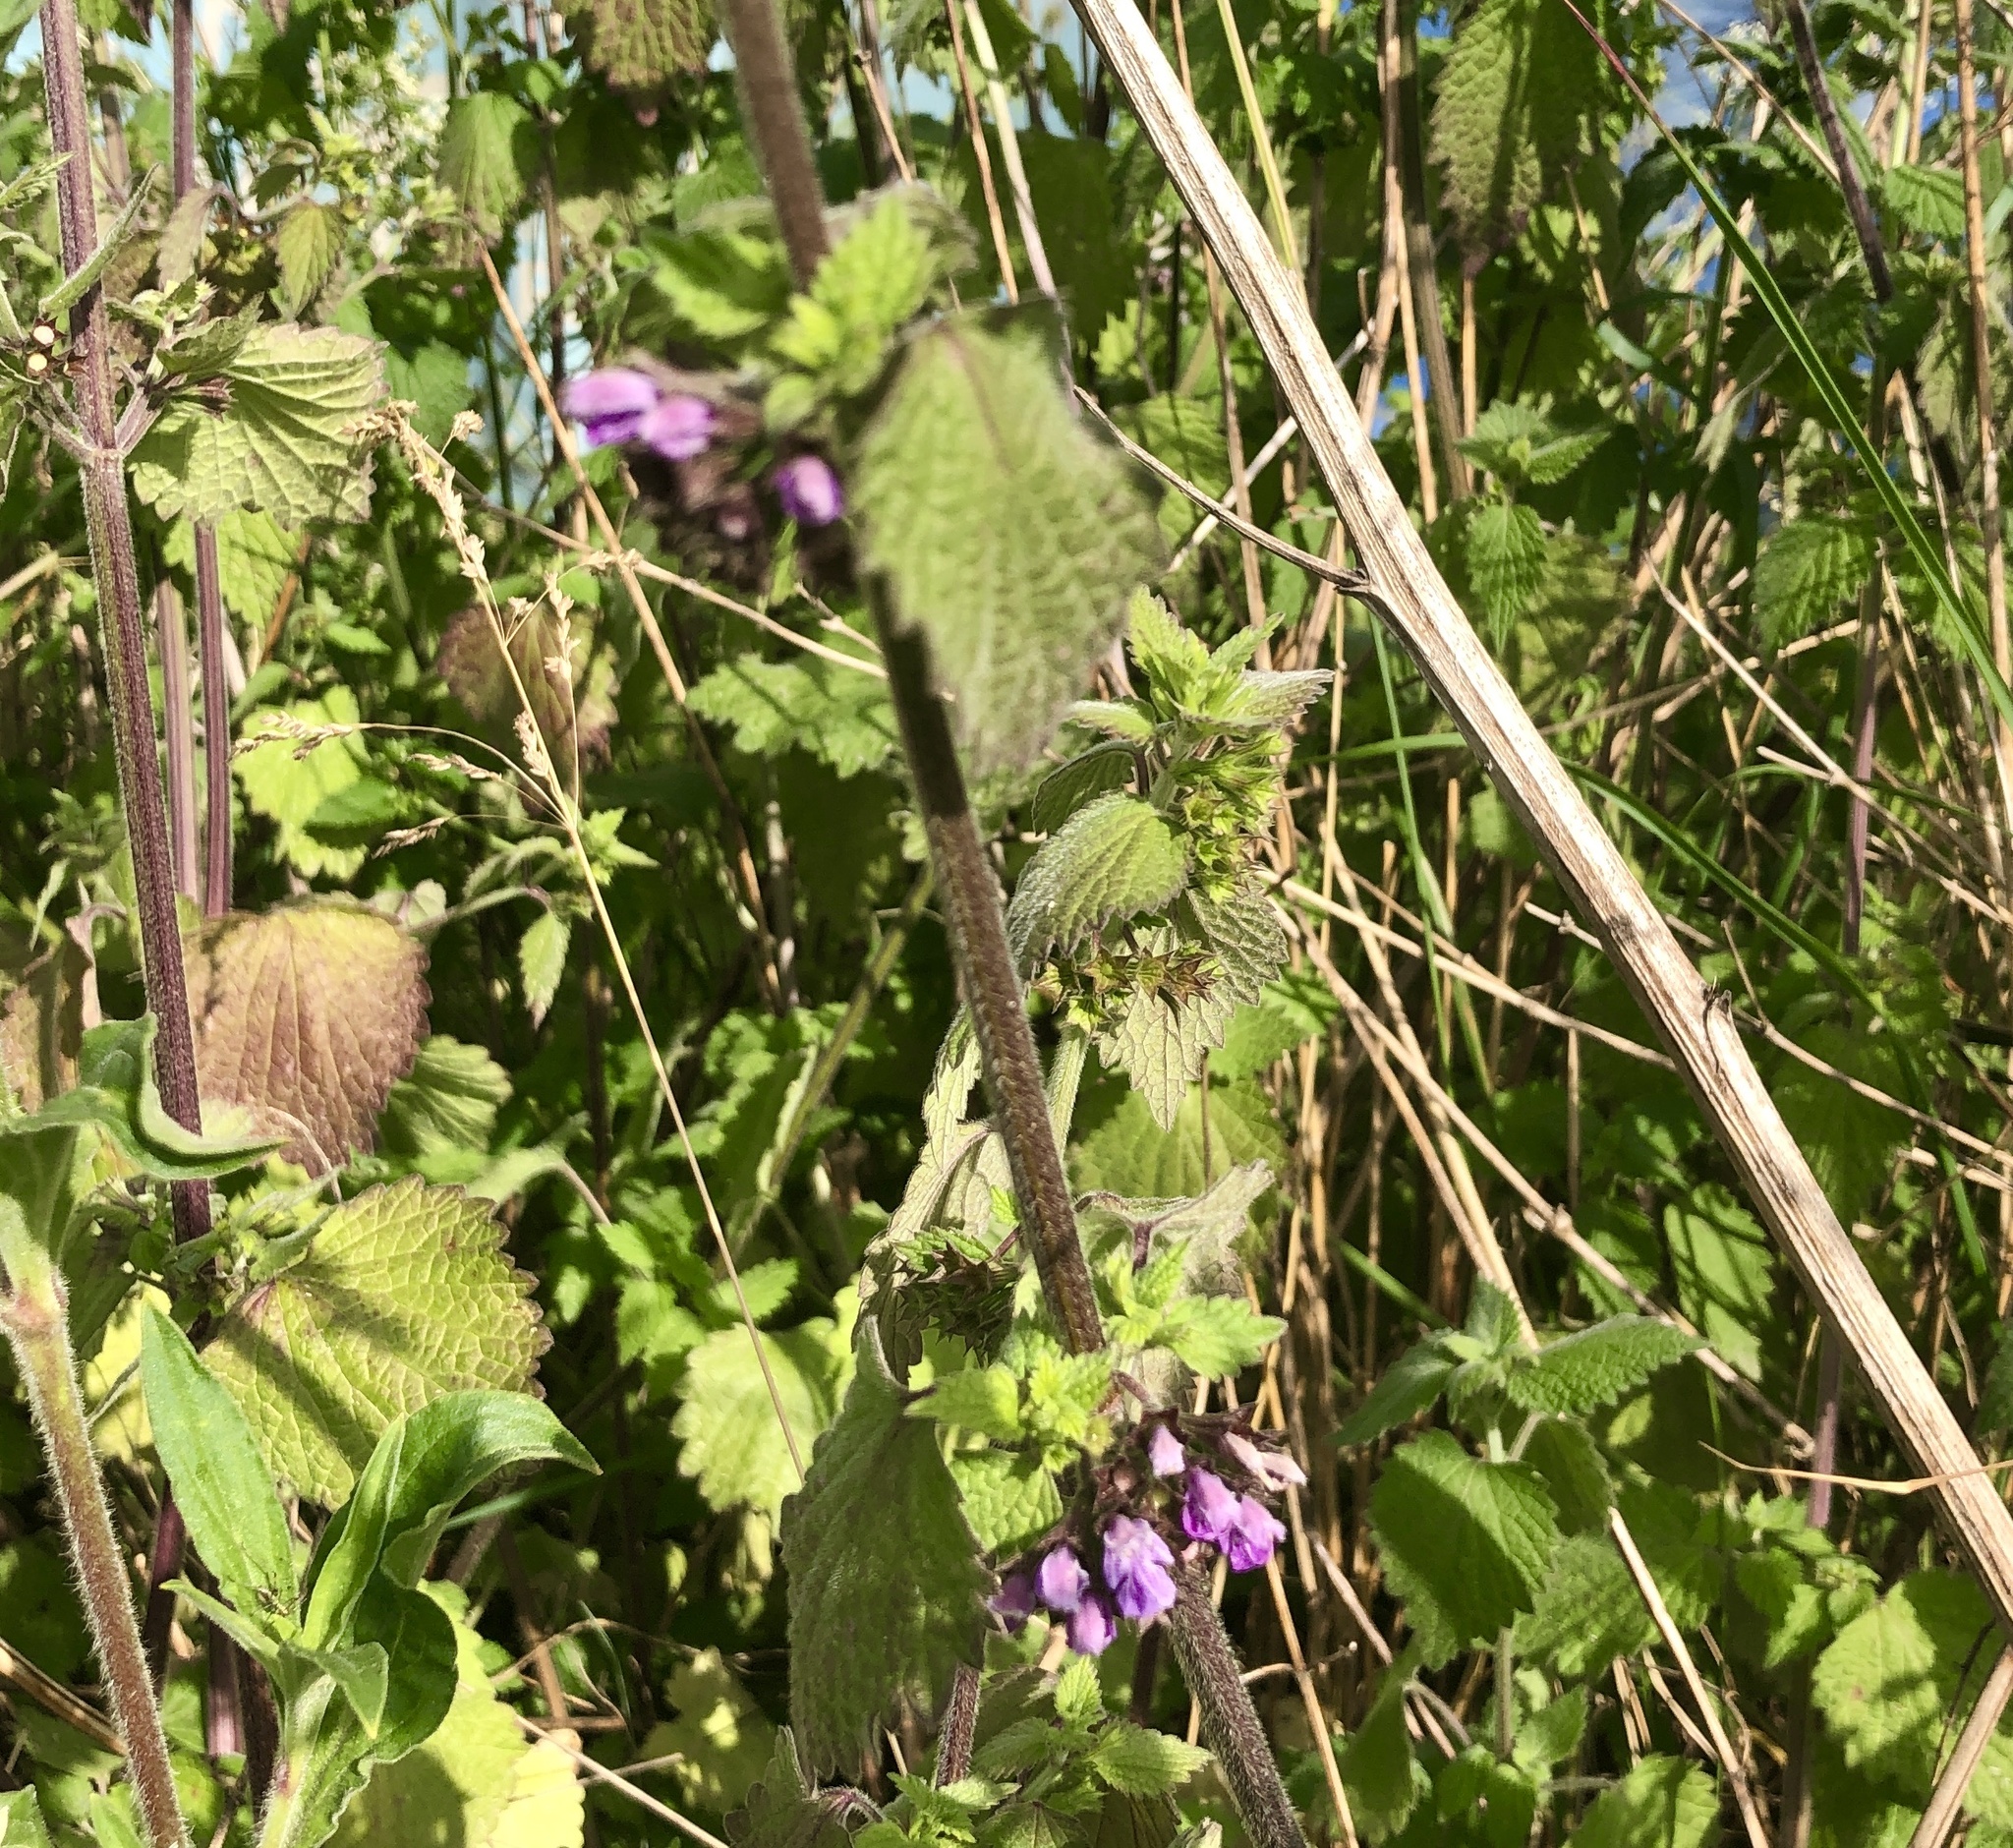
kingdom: Plantae
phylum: Tracheophyta
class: Magnoliopsida
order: Lamiales
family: Lamiaceae
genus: Ballota
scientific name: Ballota nigra
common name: Black horehound
